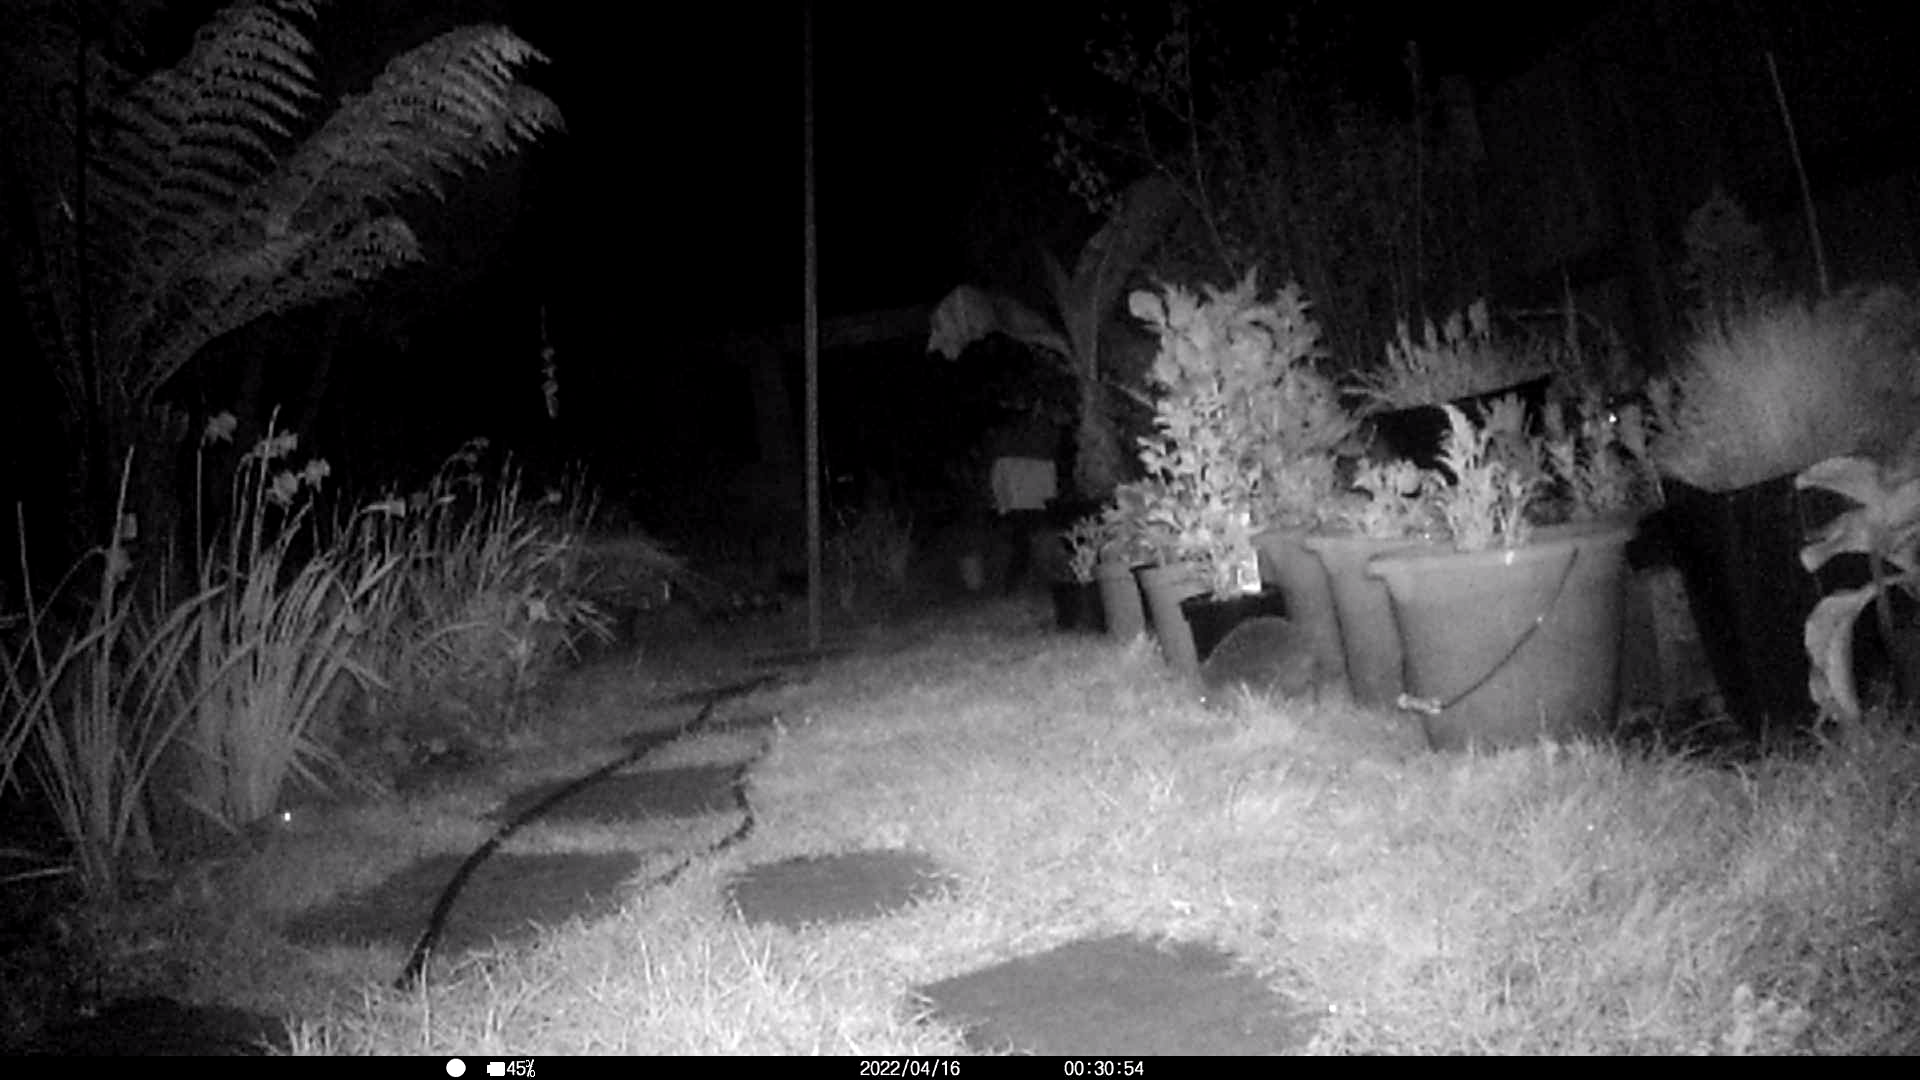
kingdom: Animalia
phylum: Chordata
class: Mammalia
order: Erinaceomorpha
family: Erinaceidae
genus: Erinaceus
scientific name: Erinaceus europaeus
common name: West european hedgehog
